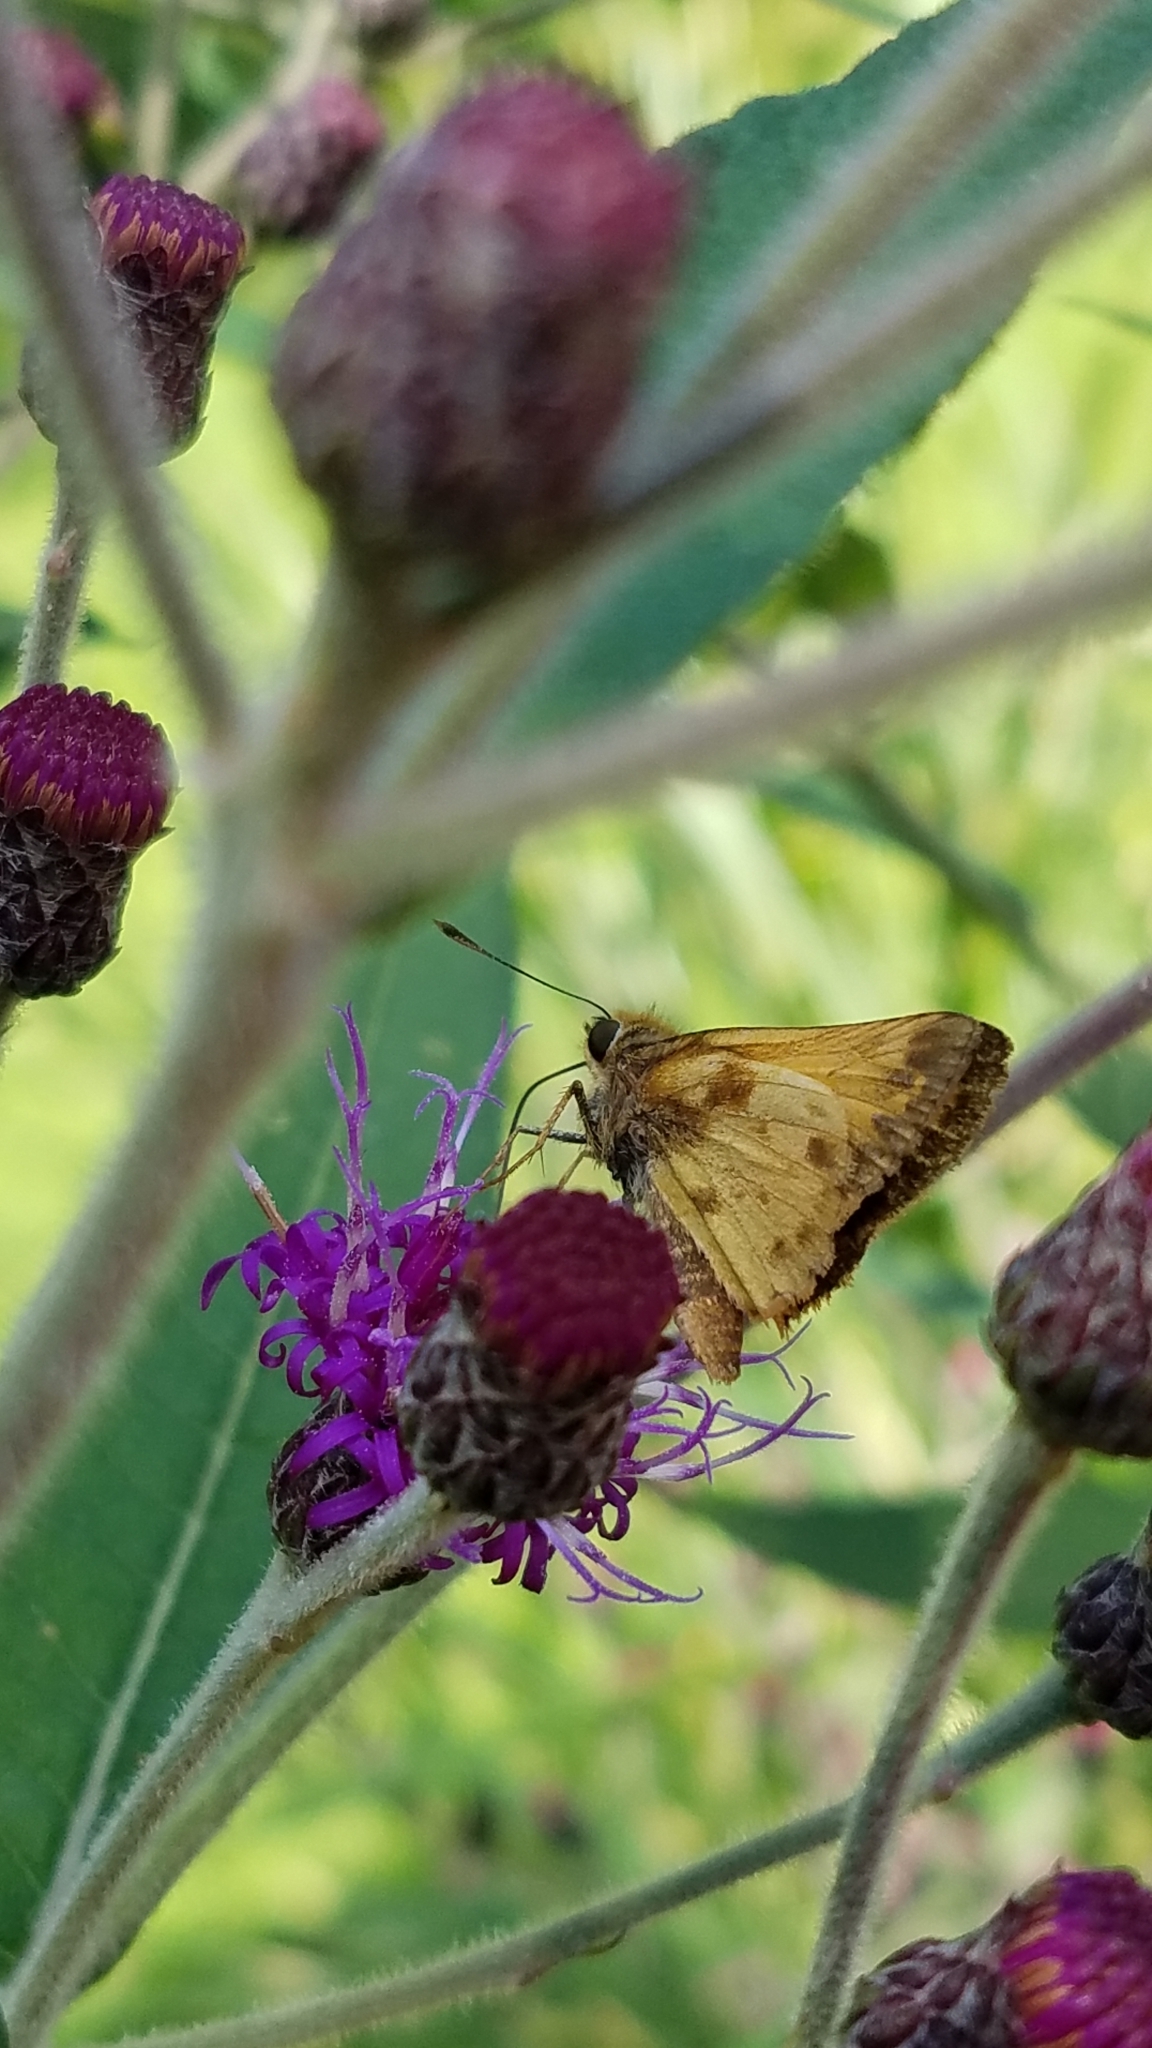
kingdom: Animalia
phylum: Arthropoda
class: Insecta
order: Lepidoptera
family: Hesperiidae
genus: Lon
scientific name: Lon zabulon
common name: Zabulon skipper
